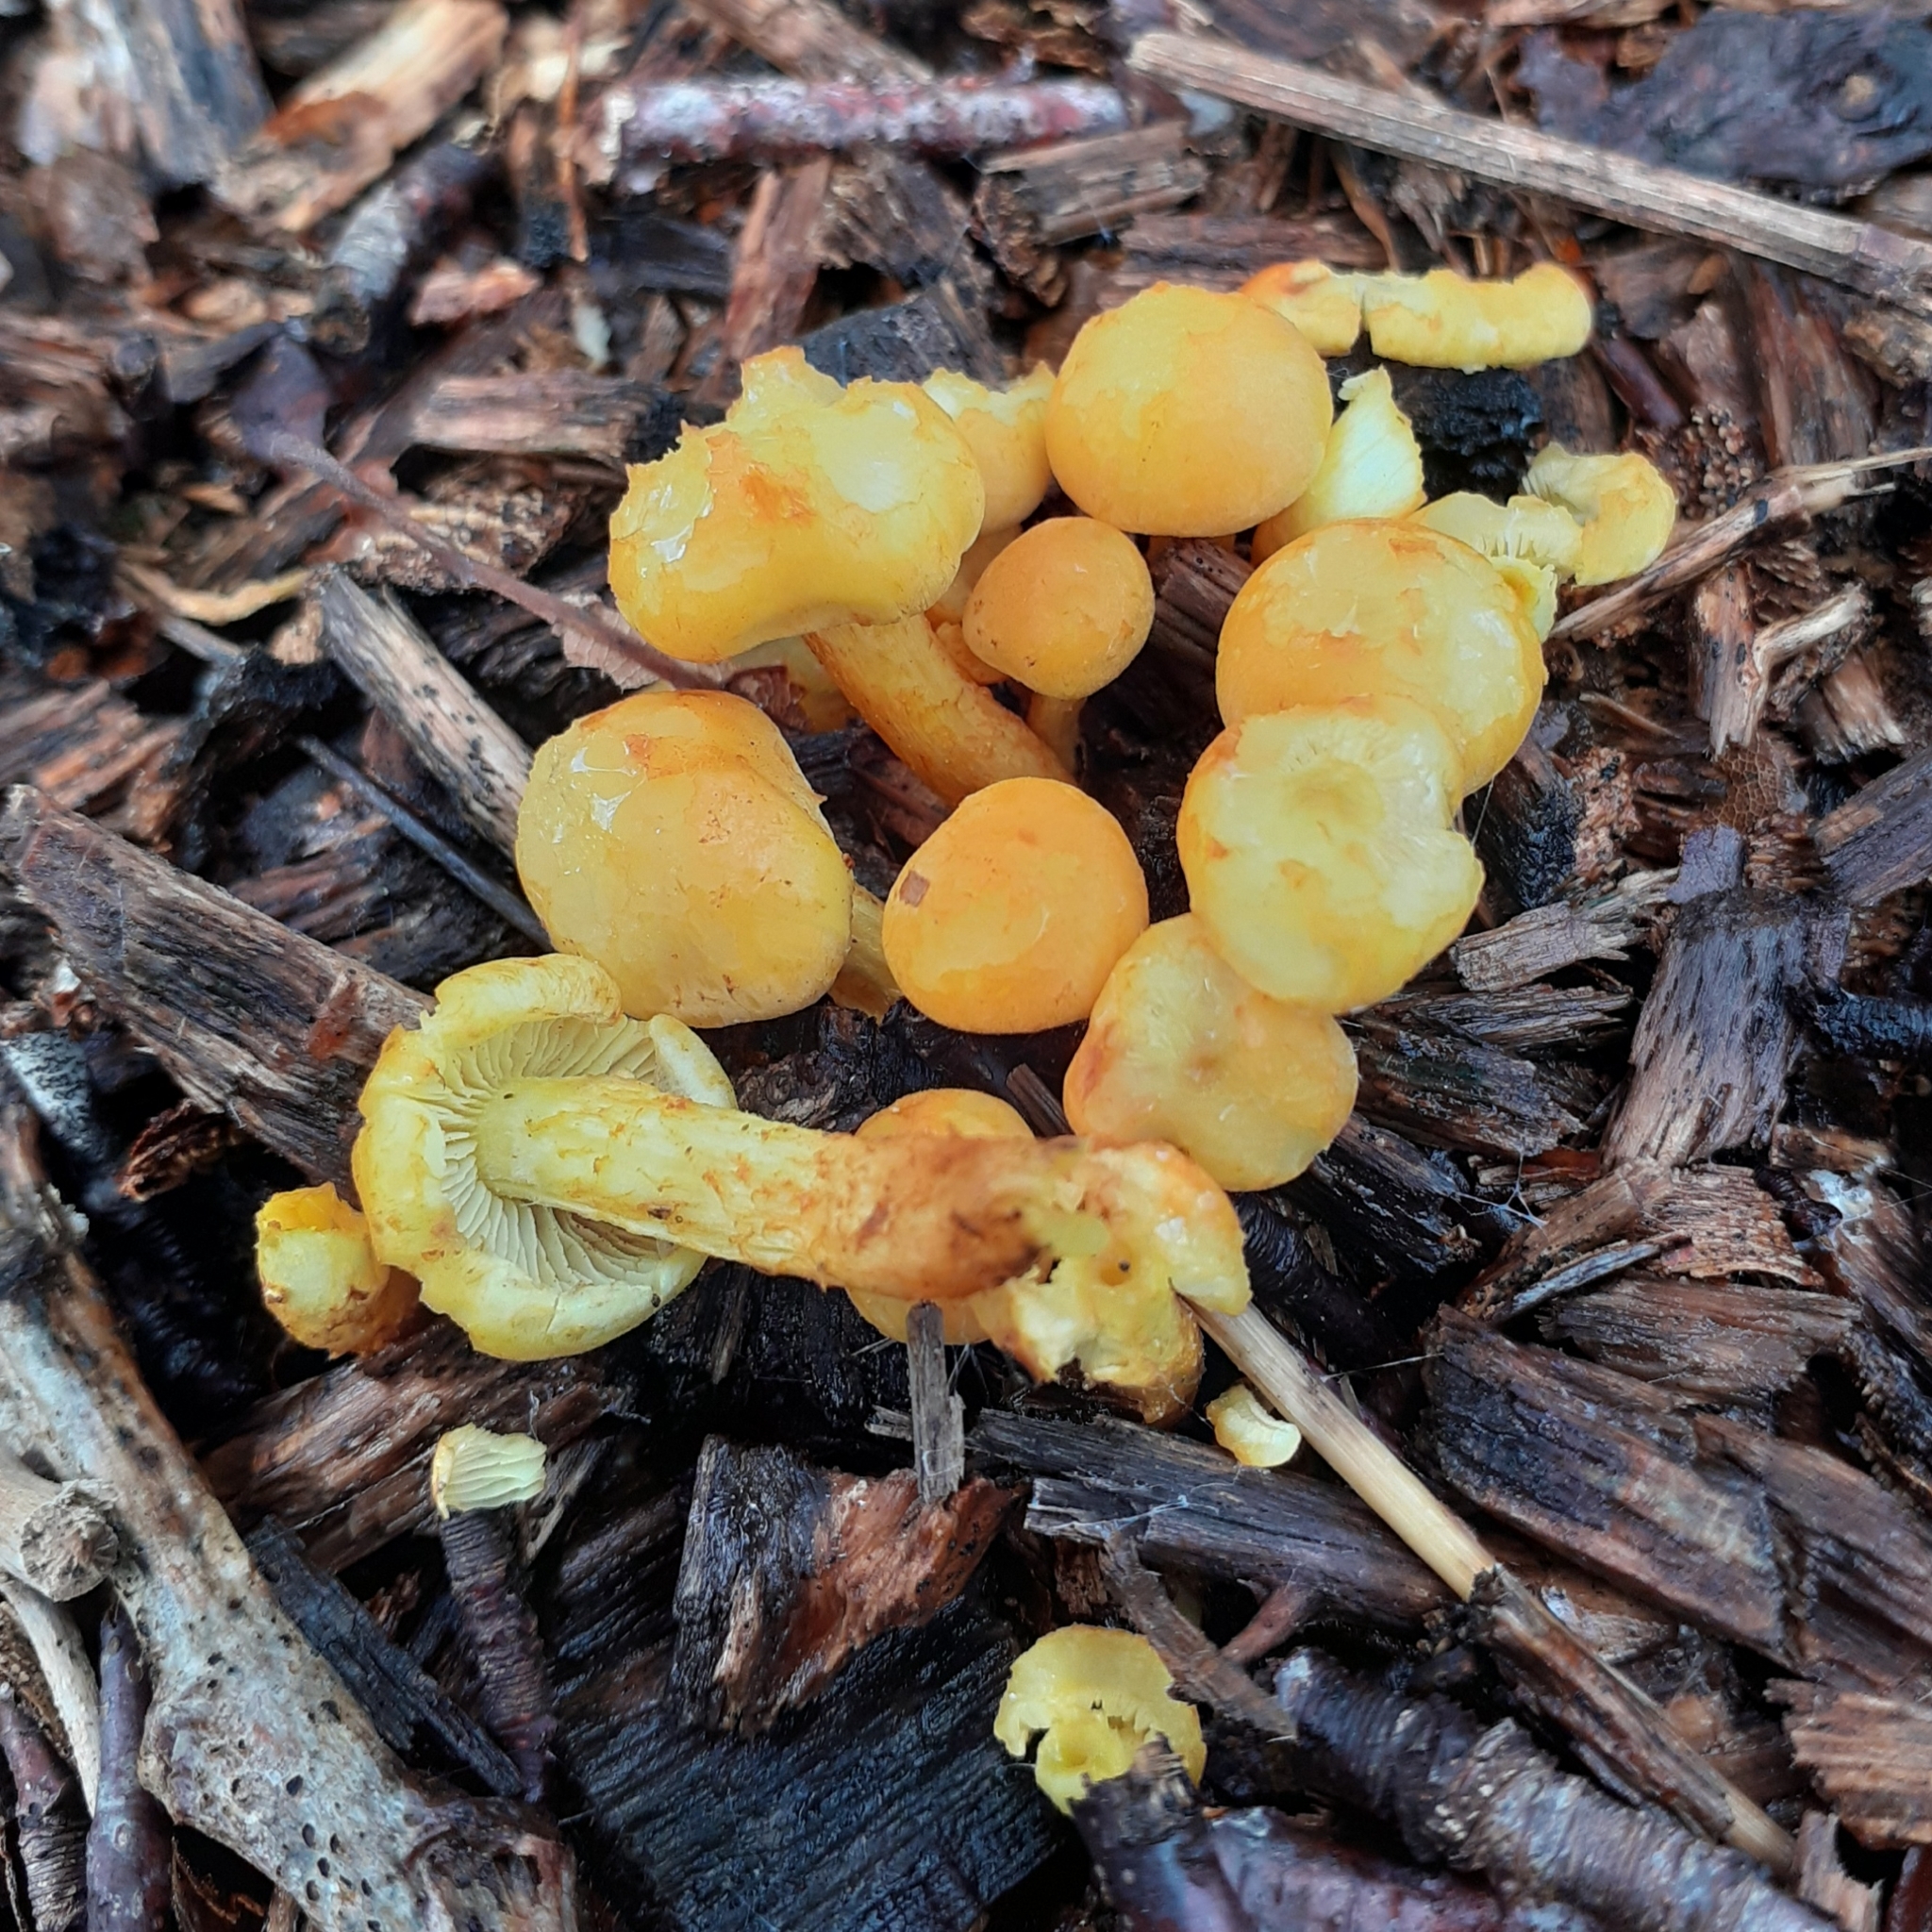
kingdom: Fungi
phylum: Basidiomycota
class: Agaricomycetes
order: Agaricales
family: Strophariaceae
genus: Hypholoma
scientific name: Hypholoma fasciculare
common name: Sulphur tuft
